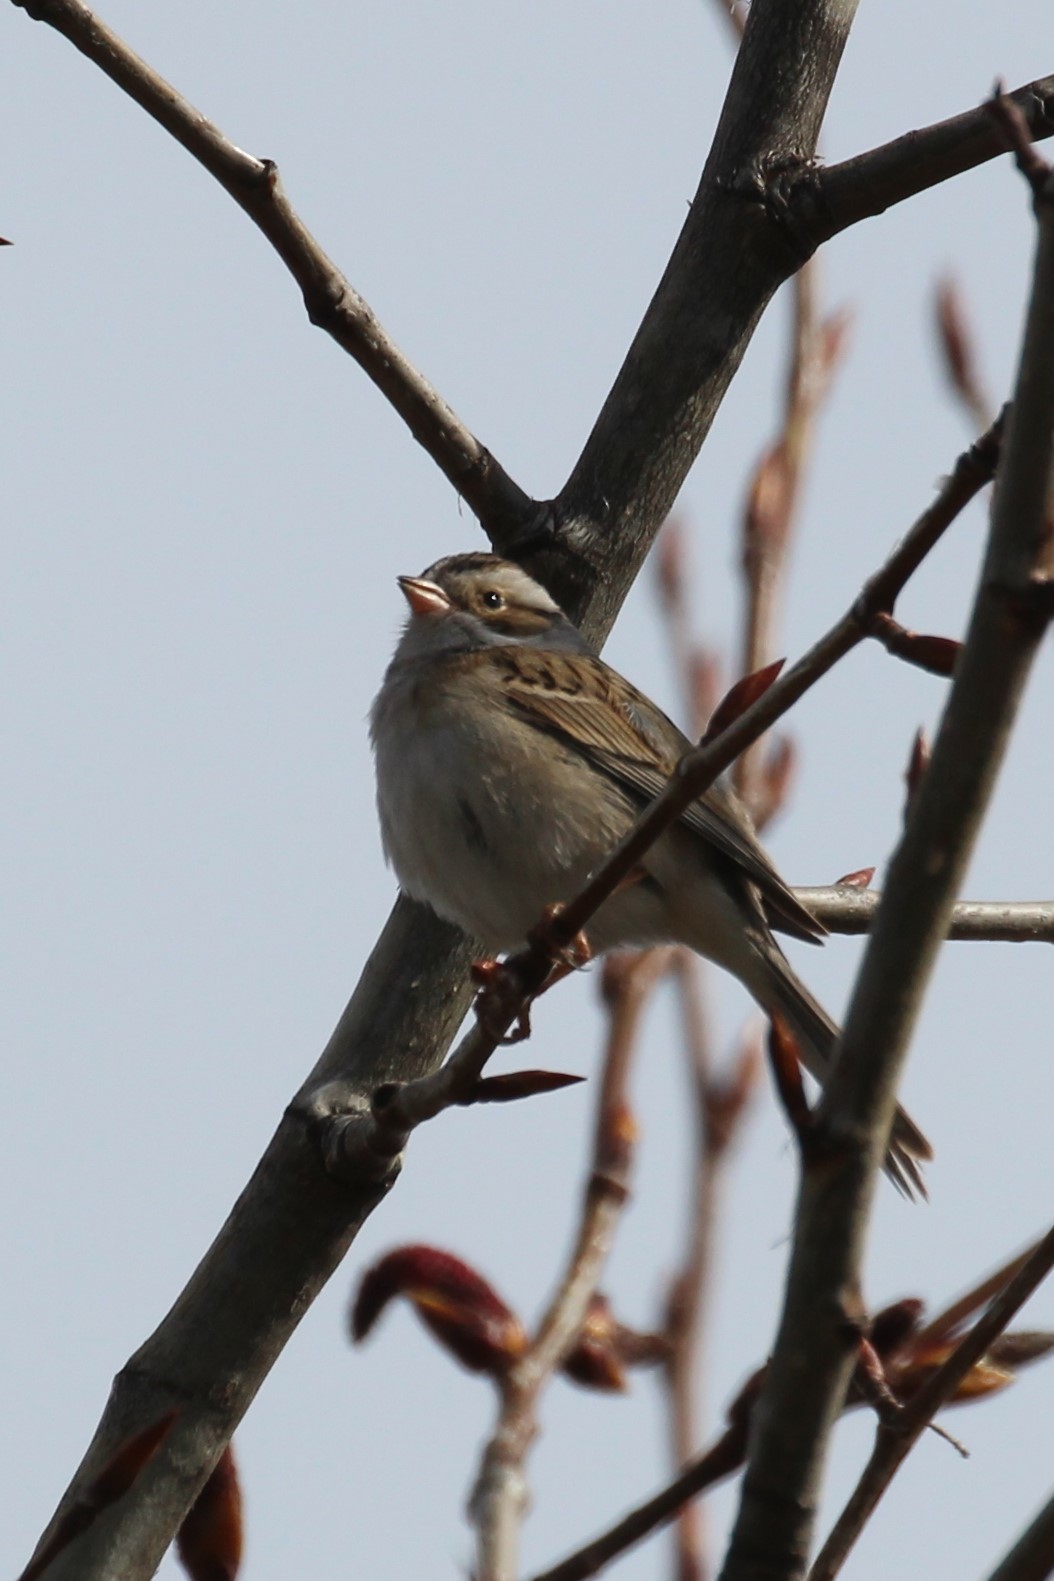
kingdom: Animalia
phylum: Chordata
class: Aves
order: Passeriformes
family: Passerellidae
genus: Spizella
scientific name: Spizella pallida
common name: Clay-colored sparrow
